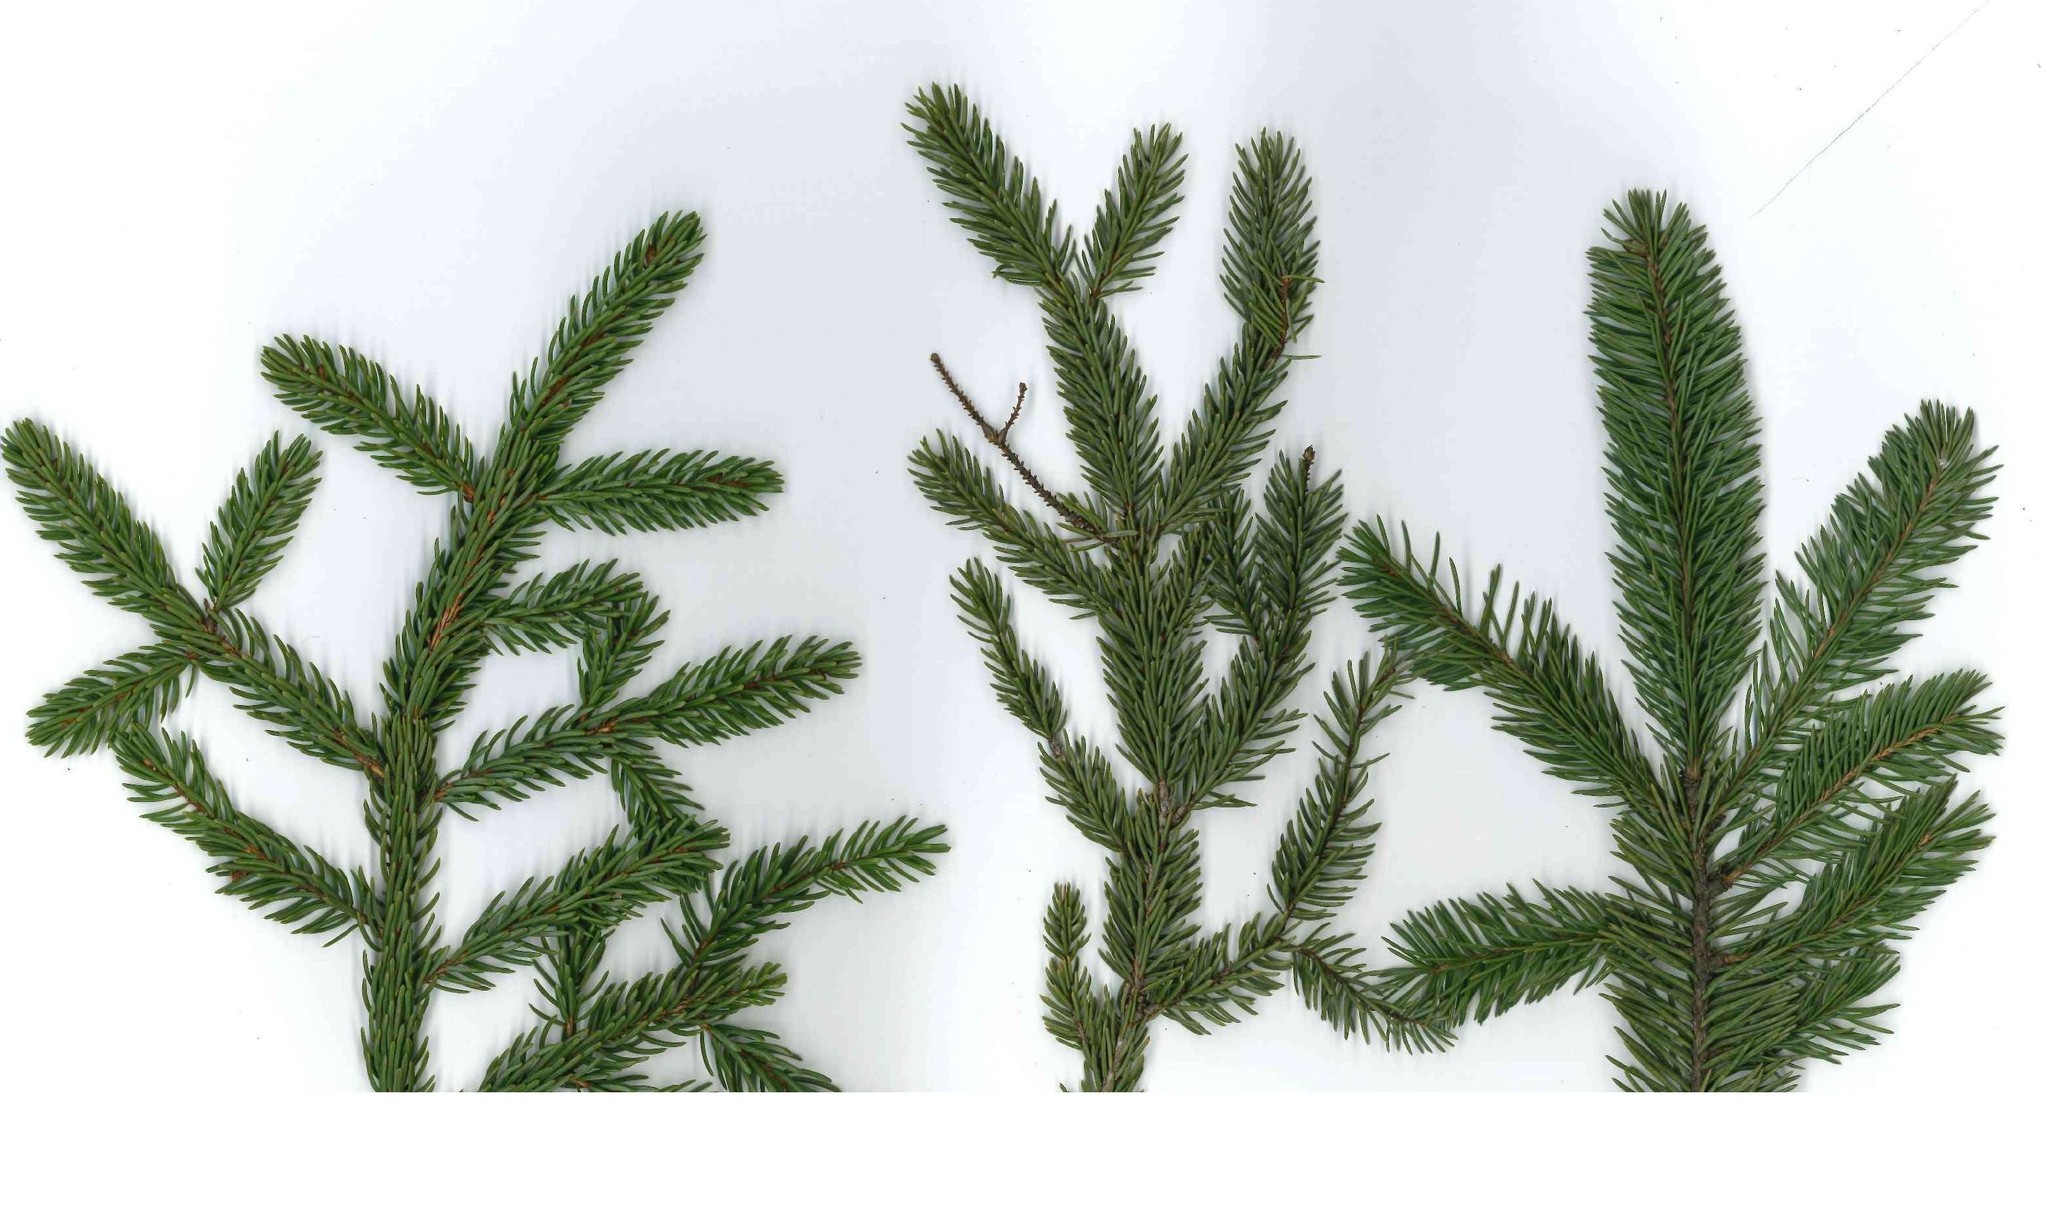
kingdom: Plantae
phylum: Tracheophyta
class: Pinopsida
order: Pinales
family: Pinaceae
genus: Picea
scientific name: Picea glauca
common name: White spruce
